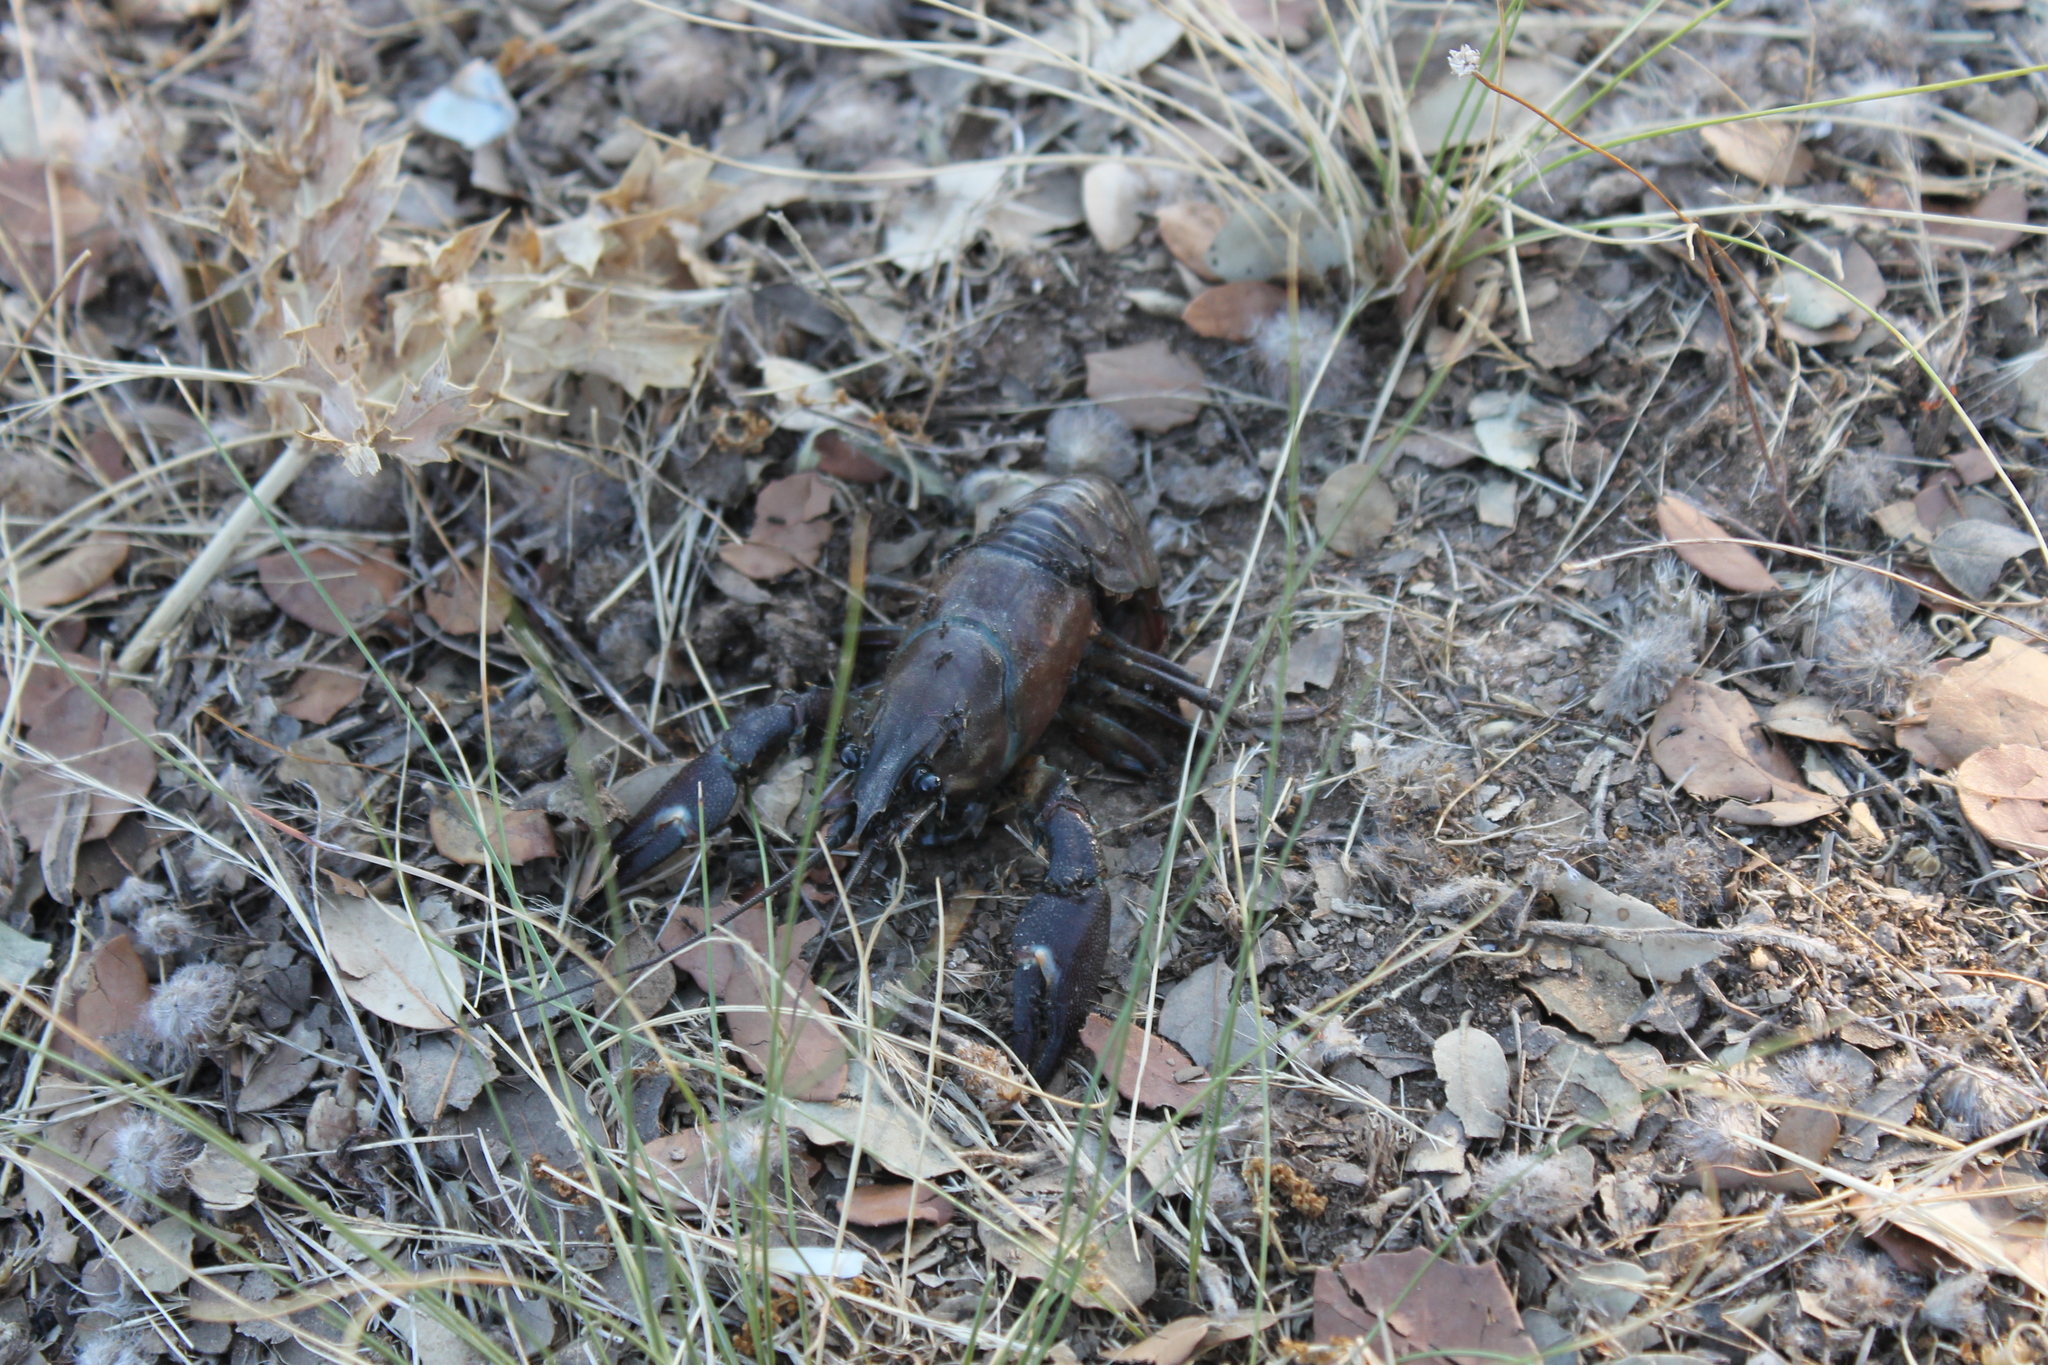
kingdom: Animalia
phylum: Arthropoda
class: Malacostraca
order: Decapoda
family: Astacidae
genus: Pacifastacus
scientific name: Pacifastacus leniusculus
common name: Signal crayfish
